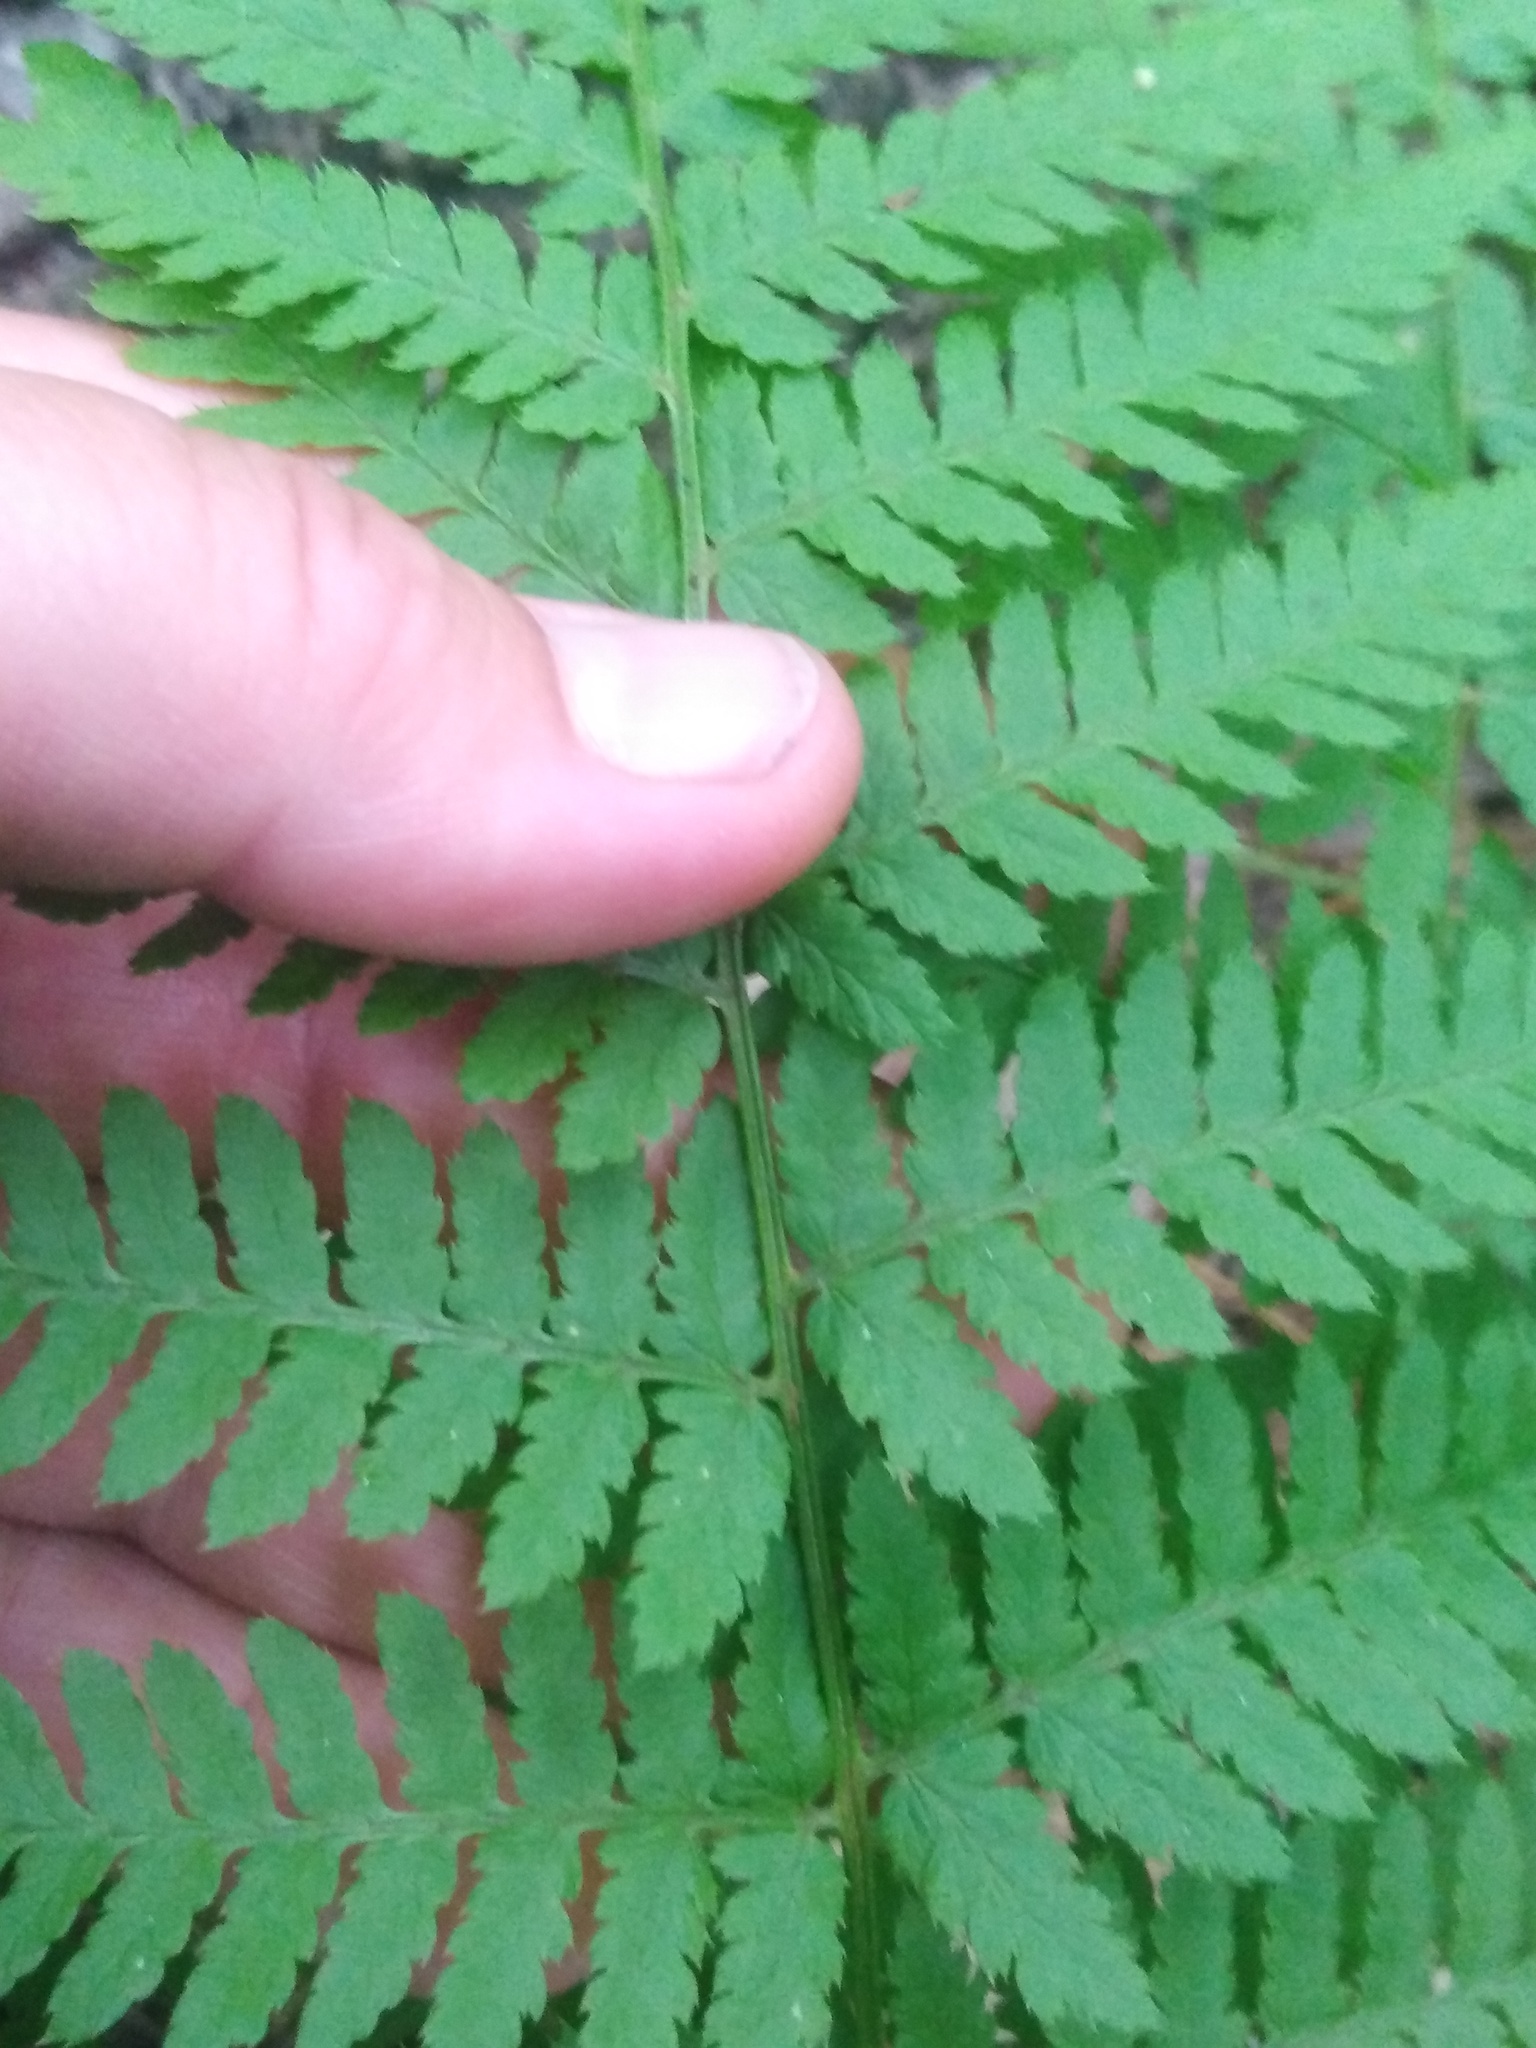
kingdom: Plantae
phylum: Tracheophyta
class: Polypodiopsida
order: Polypodiales
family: Dryopteridaceae
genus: Dryopteris
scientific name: Dryopteris carthusiana
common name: Narrow buckler-fern
